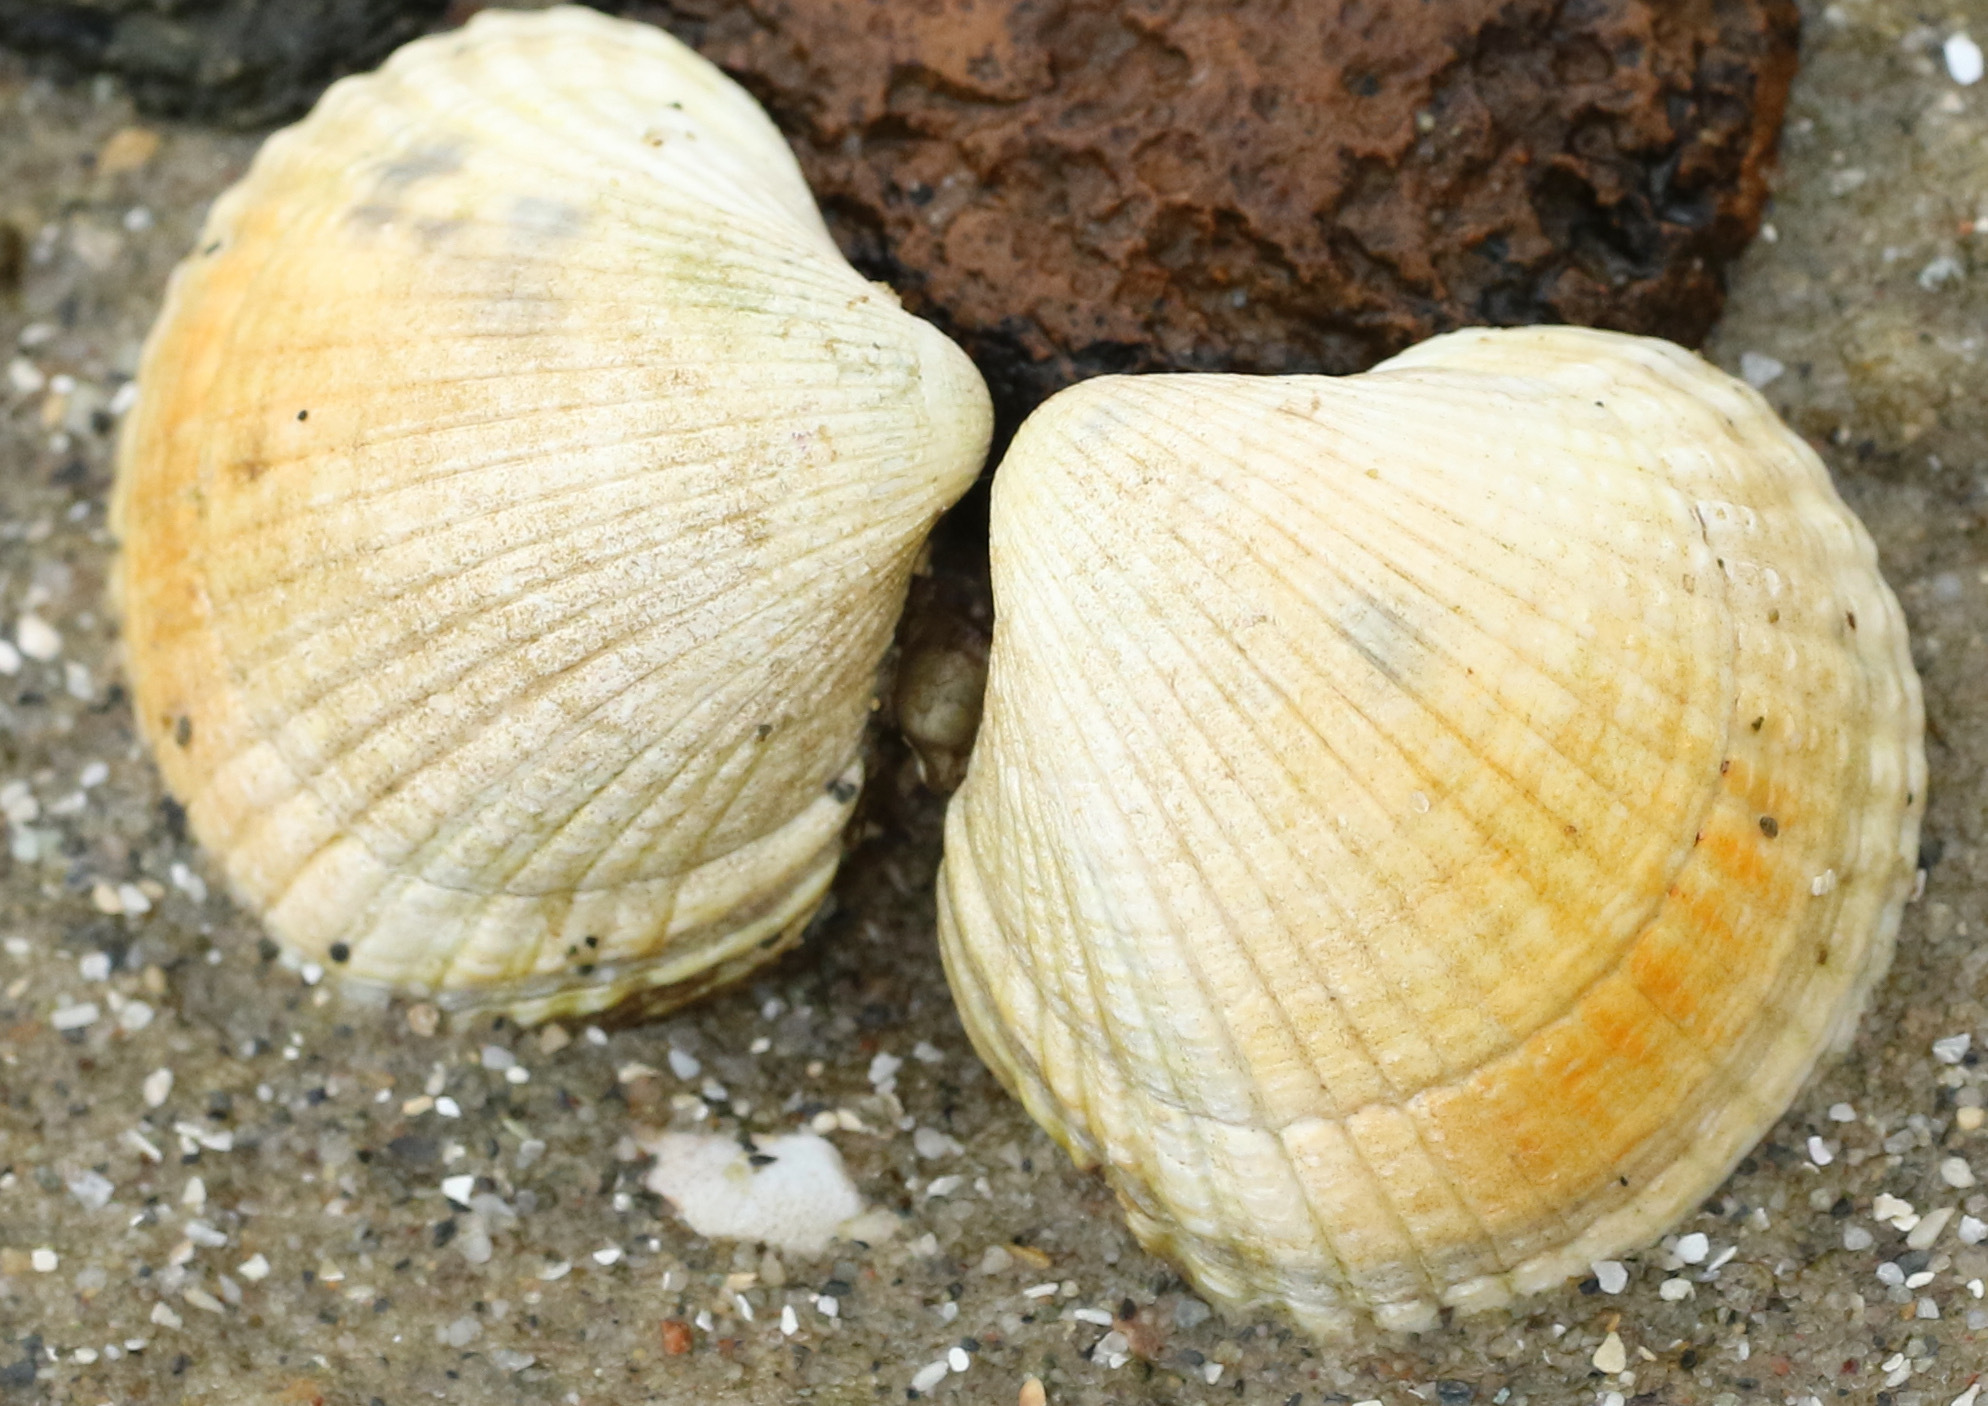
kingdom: Animalia
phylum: Mollusca
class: Bivalvia
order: Cardiida
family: Cardiidae
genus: Cerastoderma
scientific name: Cerastoderma edule
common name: Common cockle
